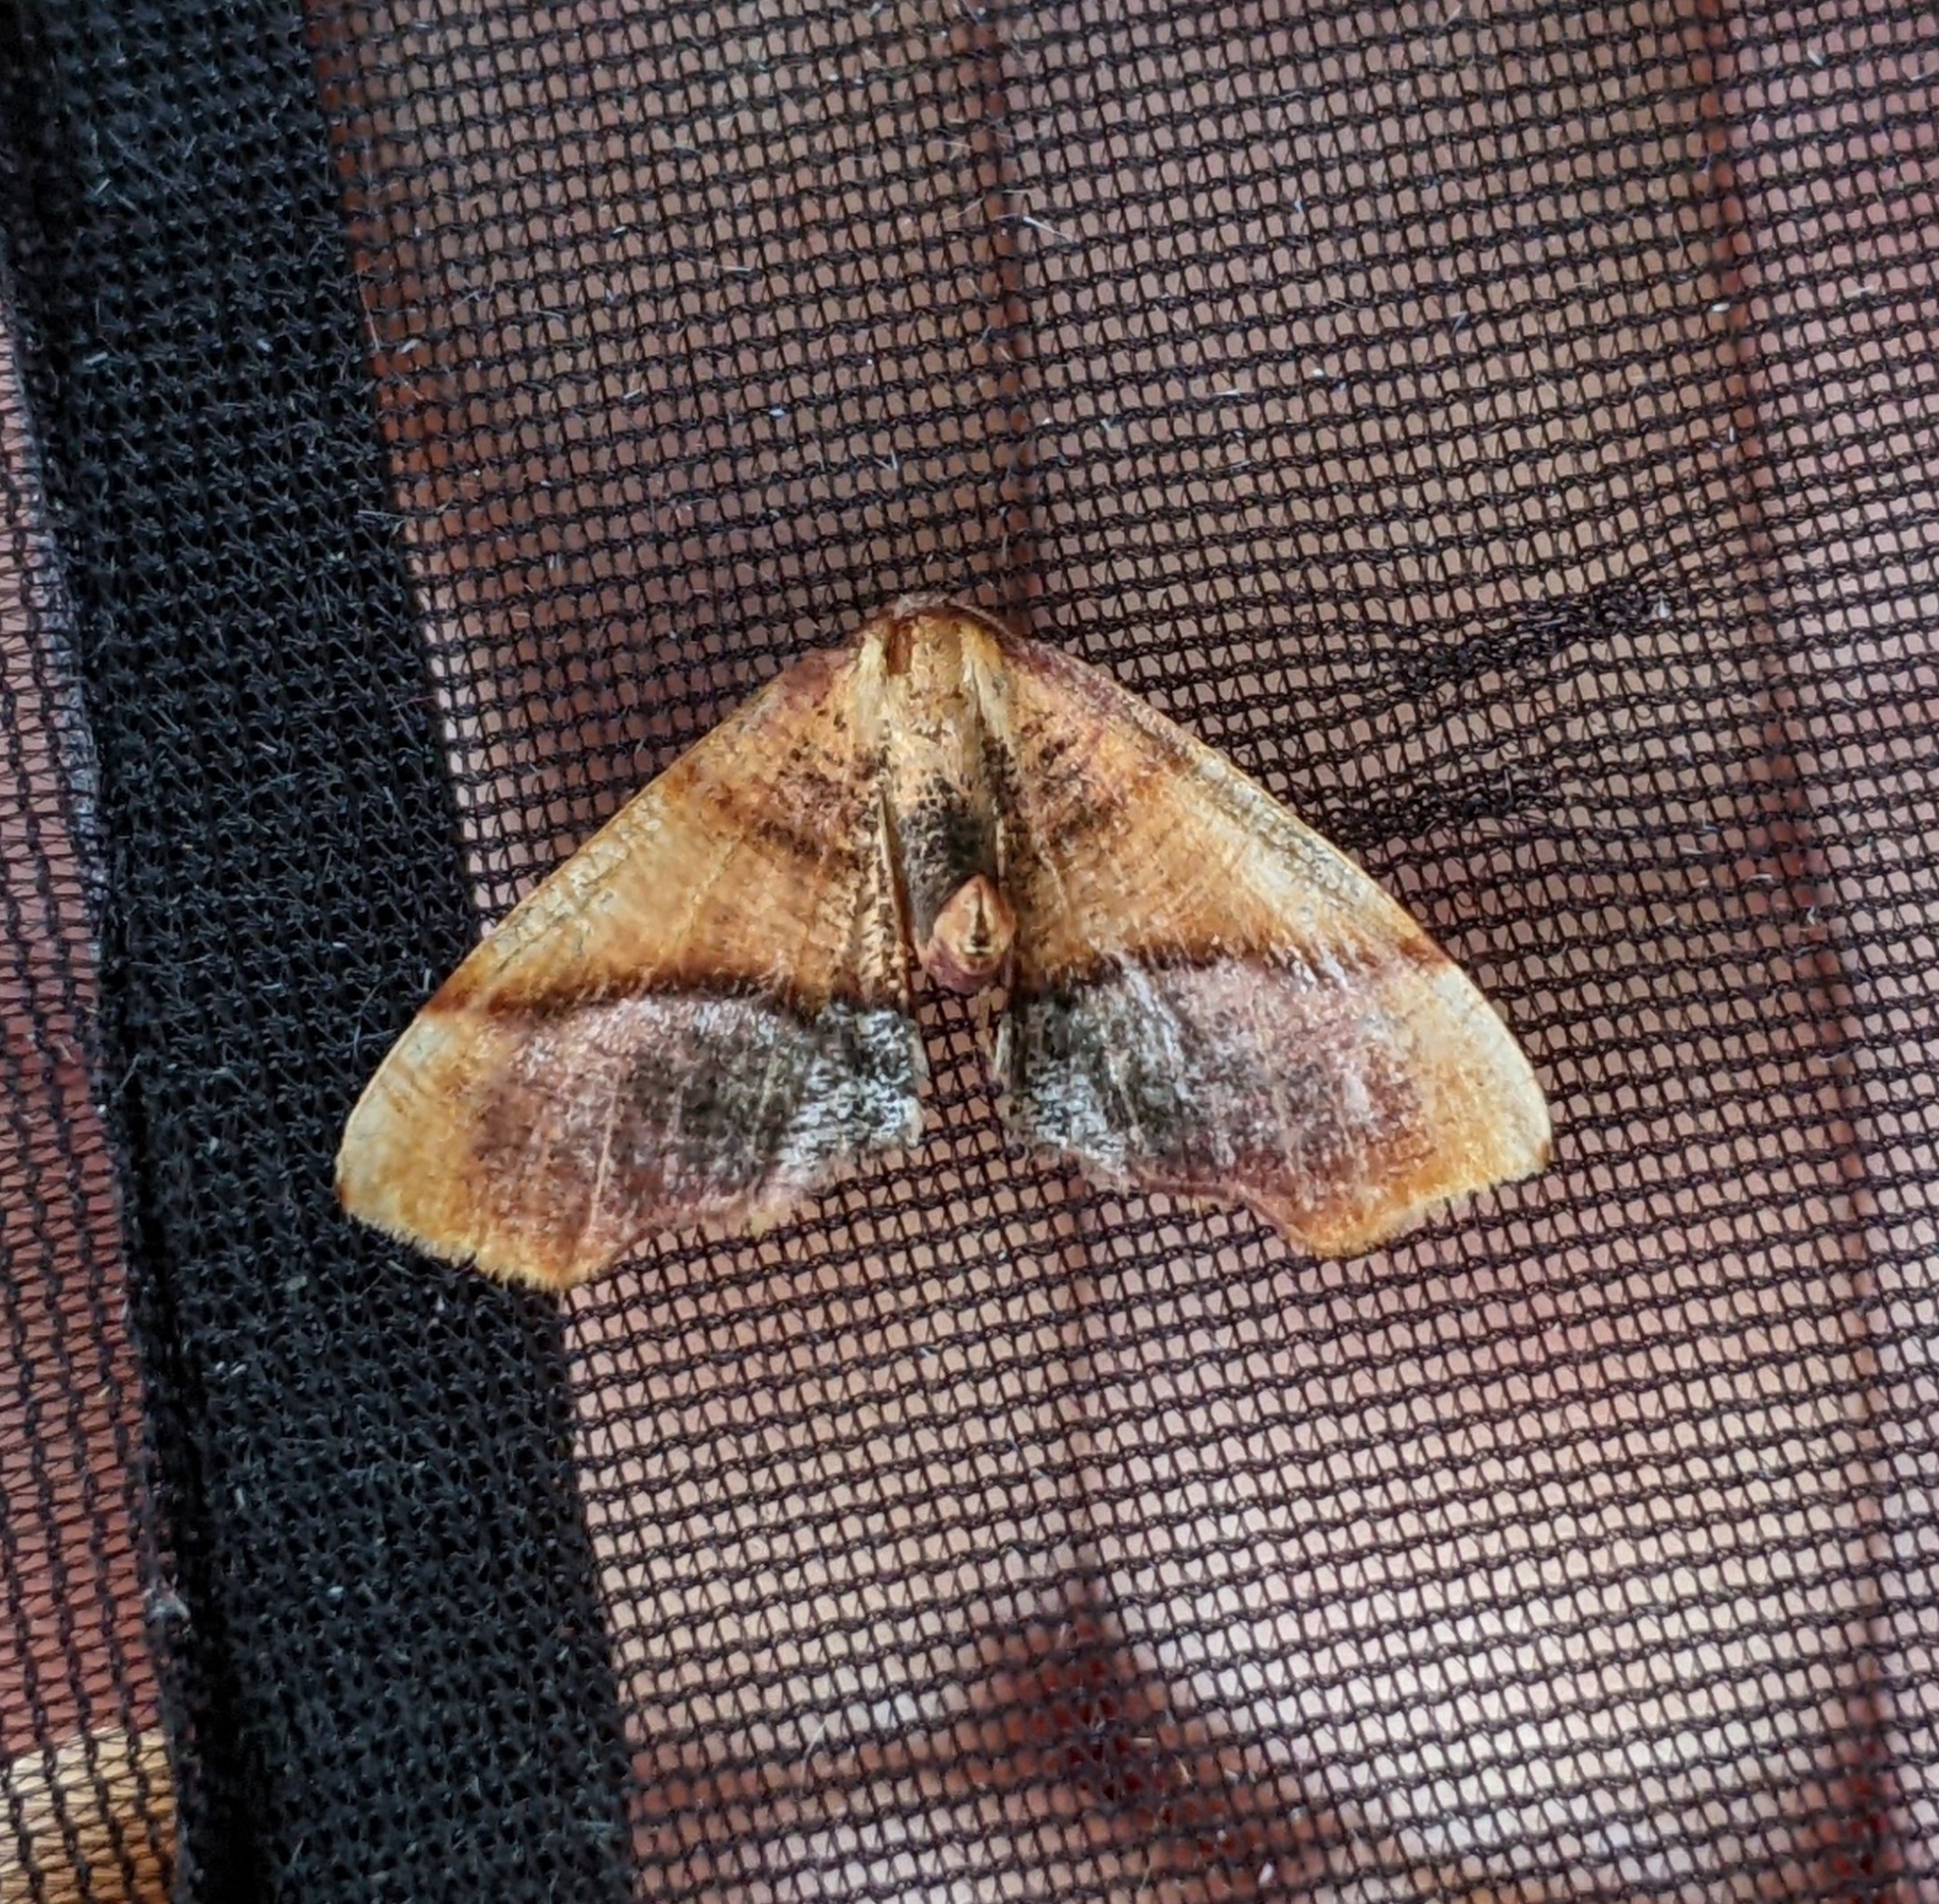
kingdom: Animalia
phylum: Arthropoda
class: Insecta
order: Lepidoptera
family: Geometridae
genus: Plagodis
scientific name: Plagodis phlogosaria
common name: Straight-lined plagodis
